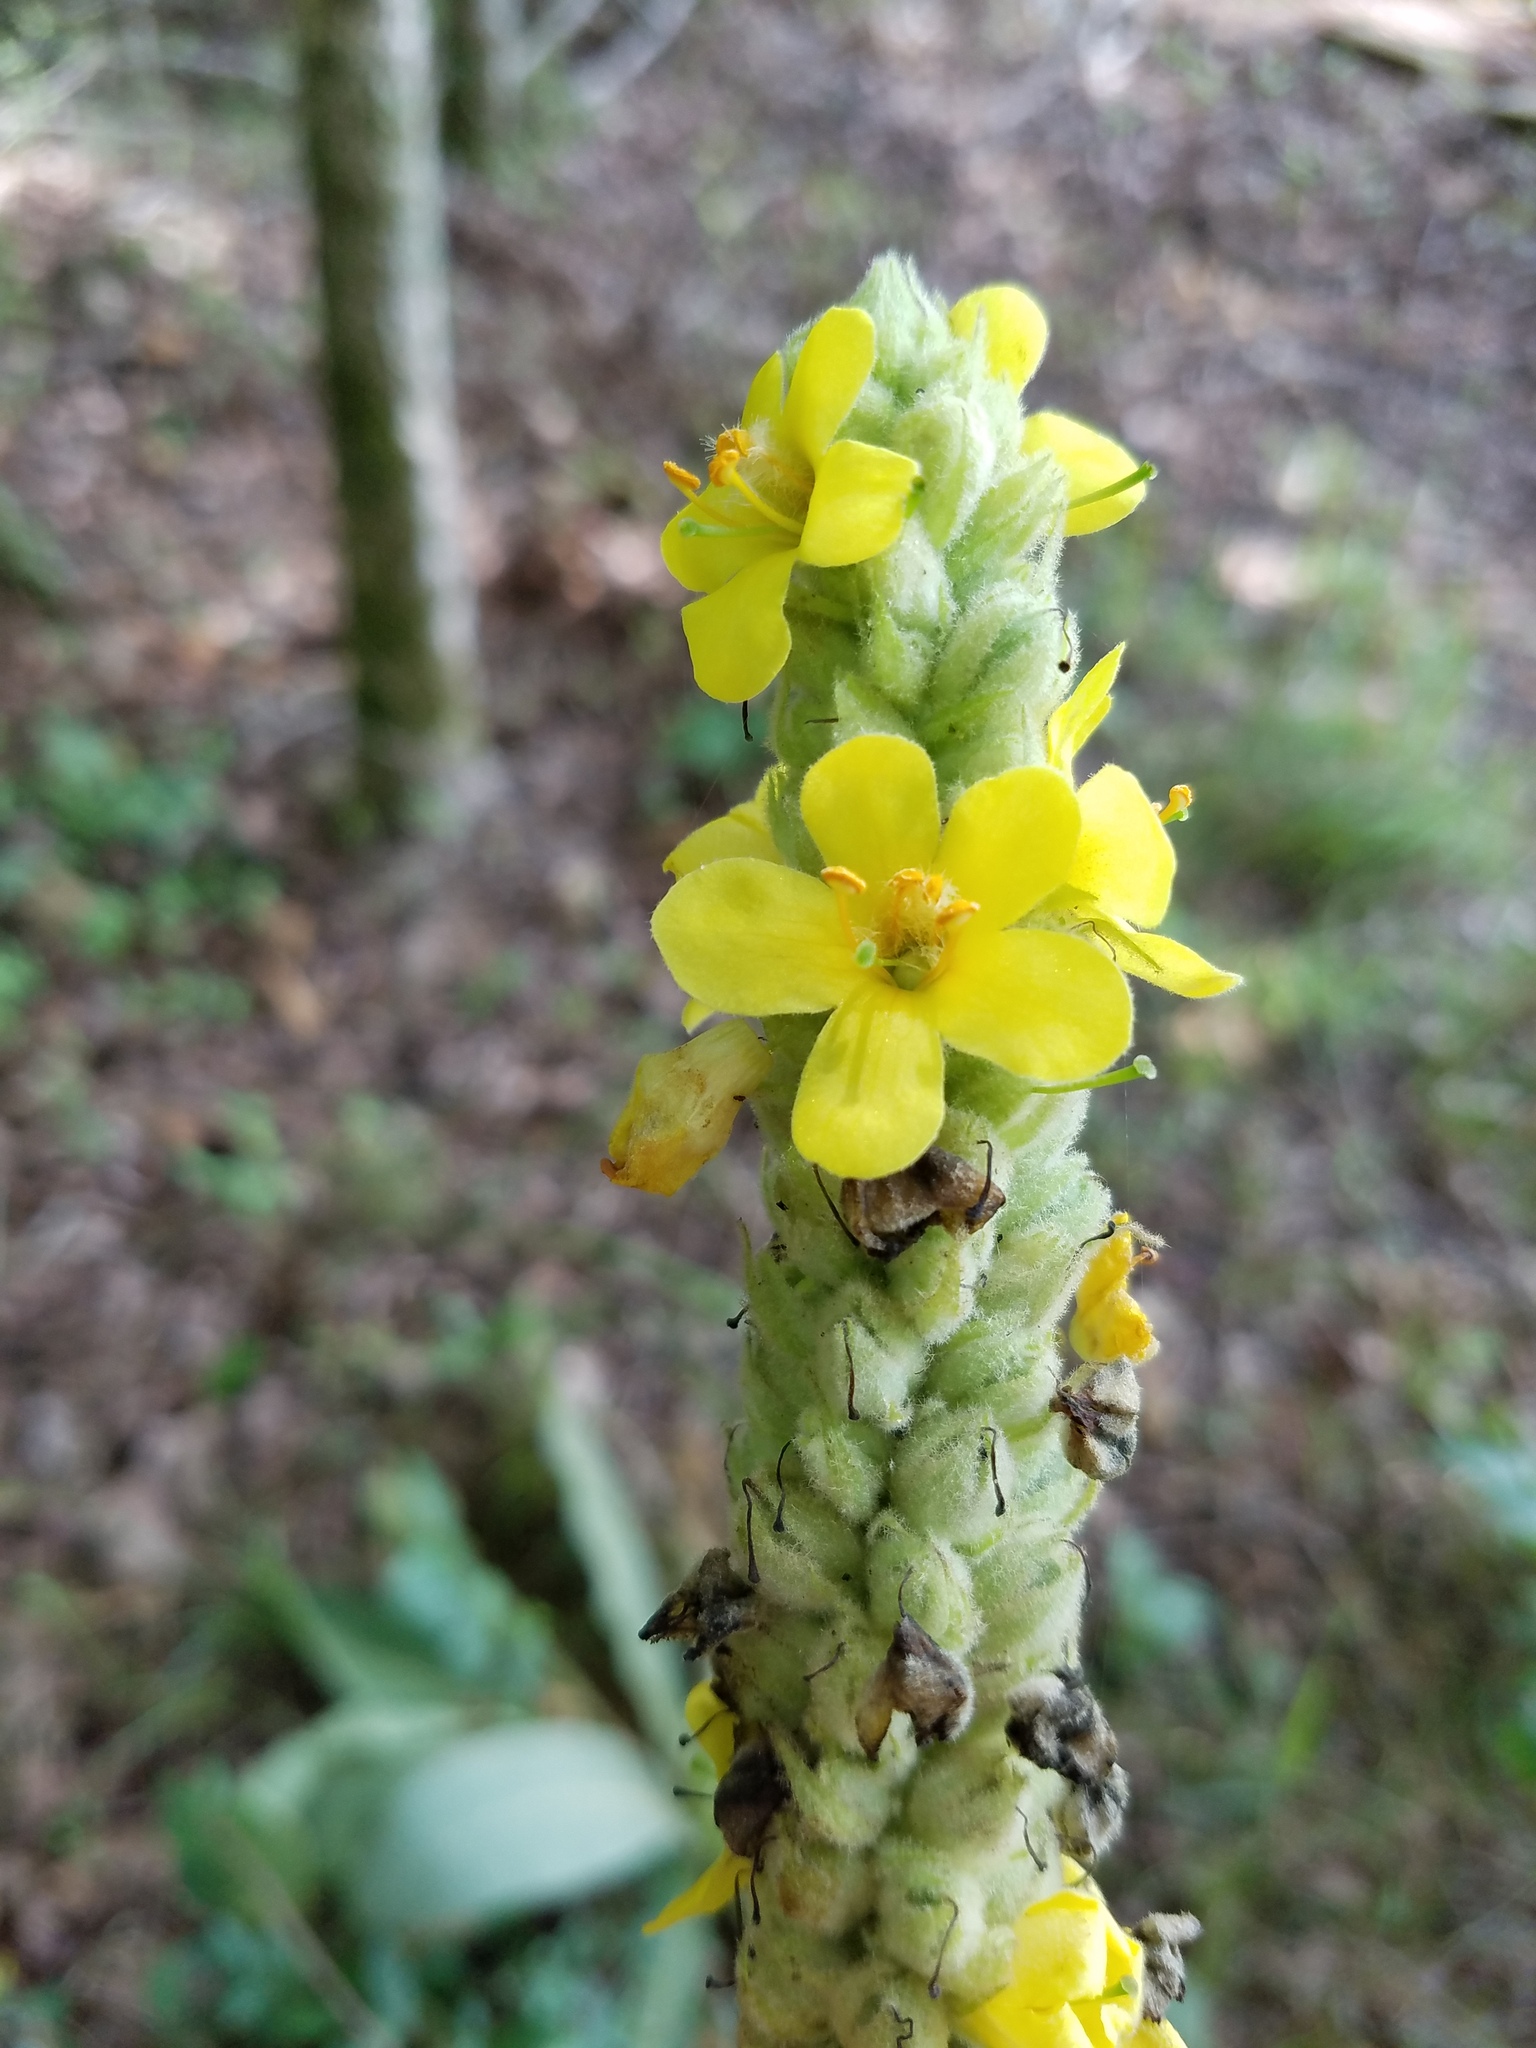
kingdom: Plantae
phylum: Tracheophyta
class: Magnoliopsida
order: Lamiales
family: Scrophulariaceae
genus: Verbascum
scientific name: Verbascum thapsus
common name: Common mullein
